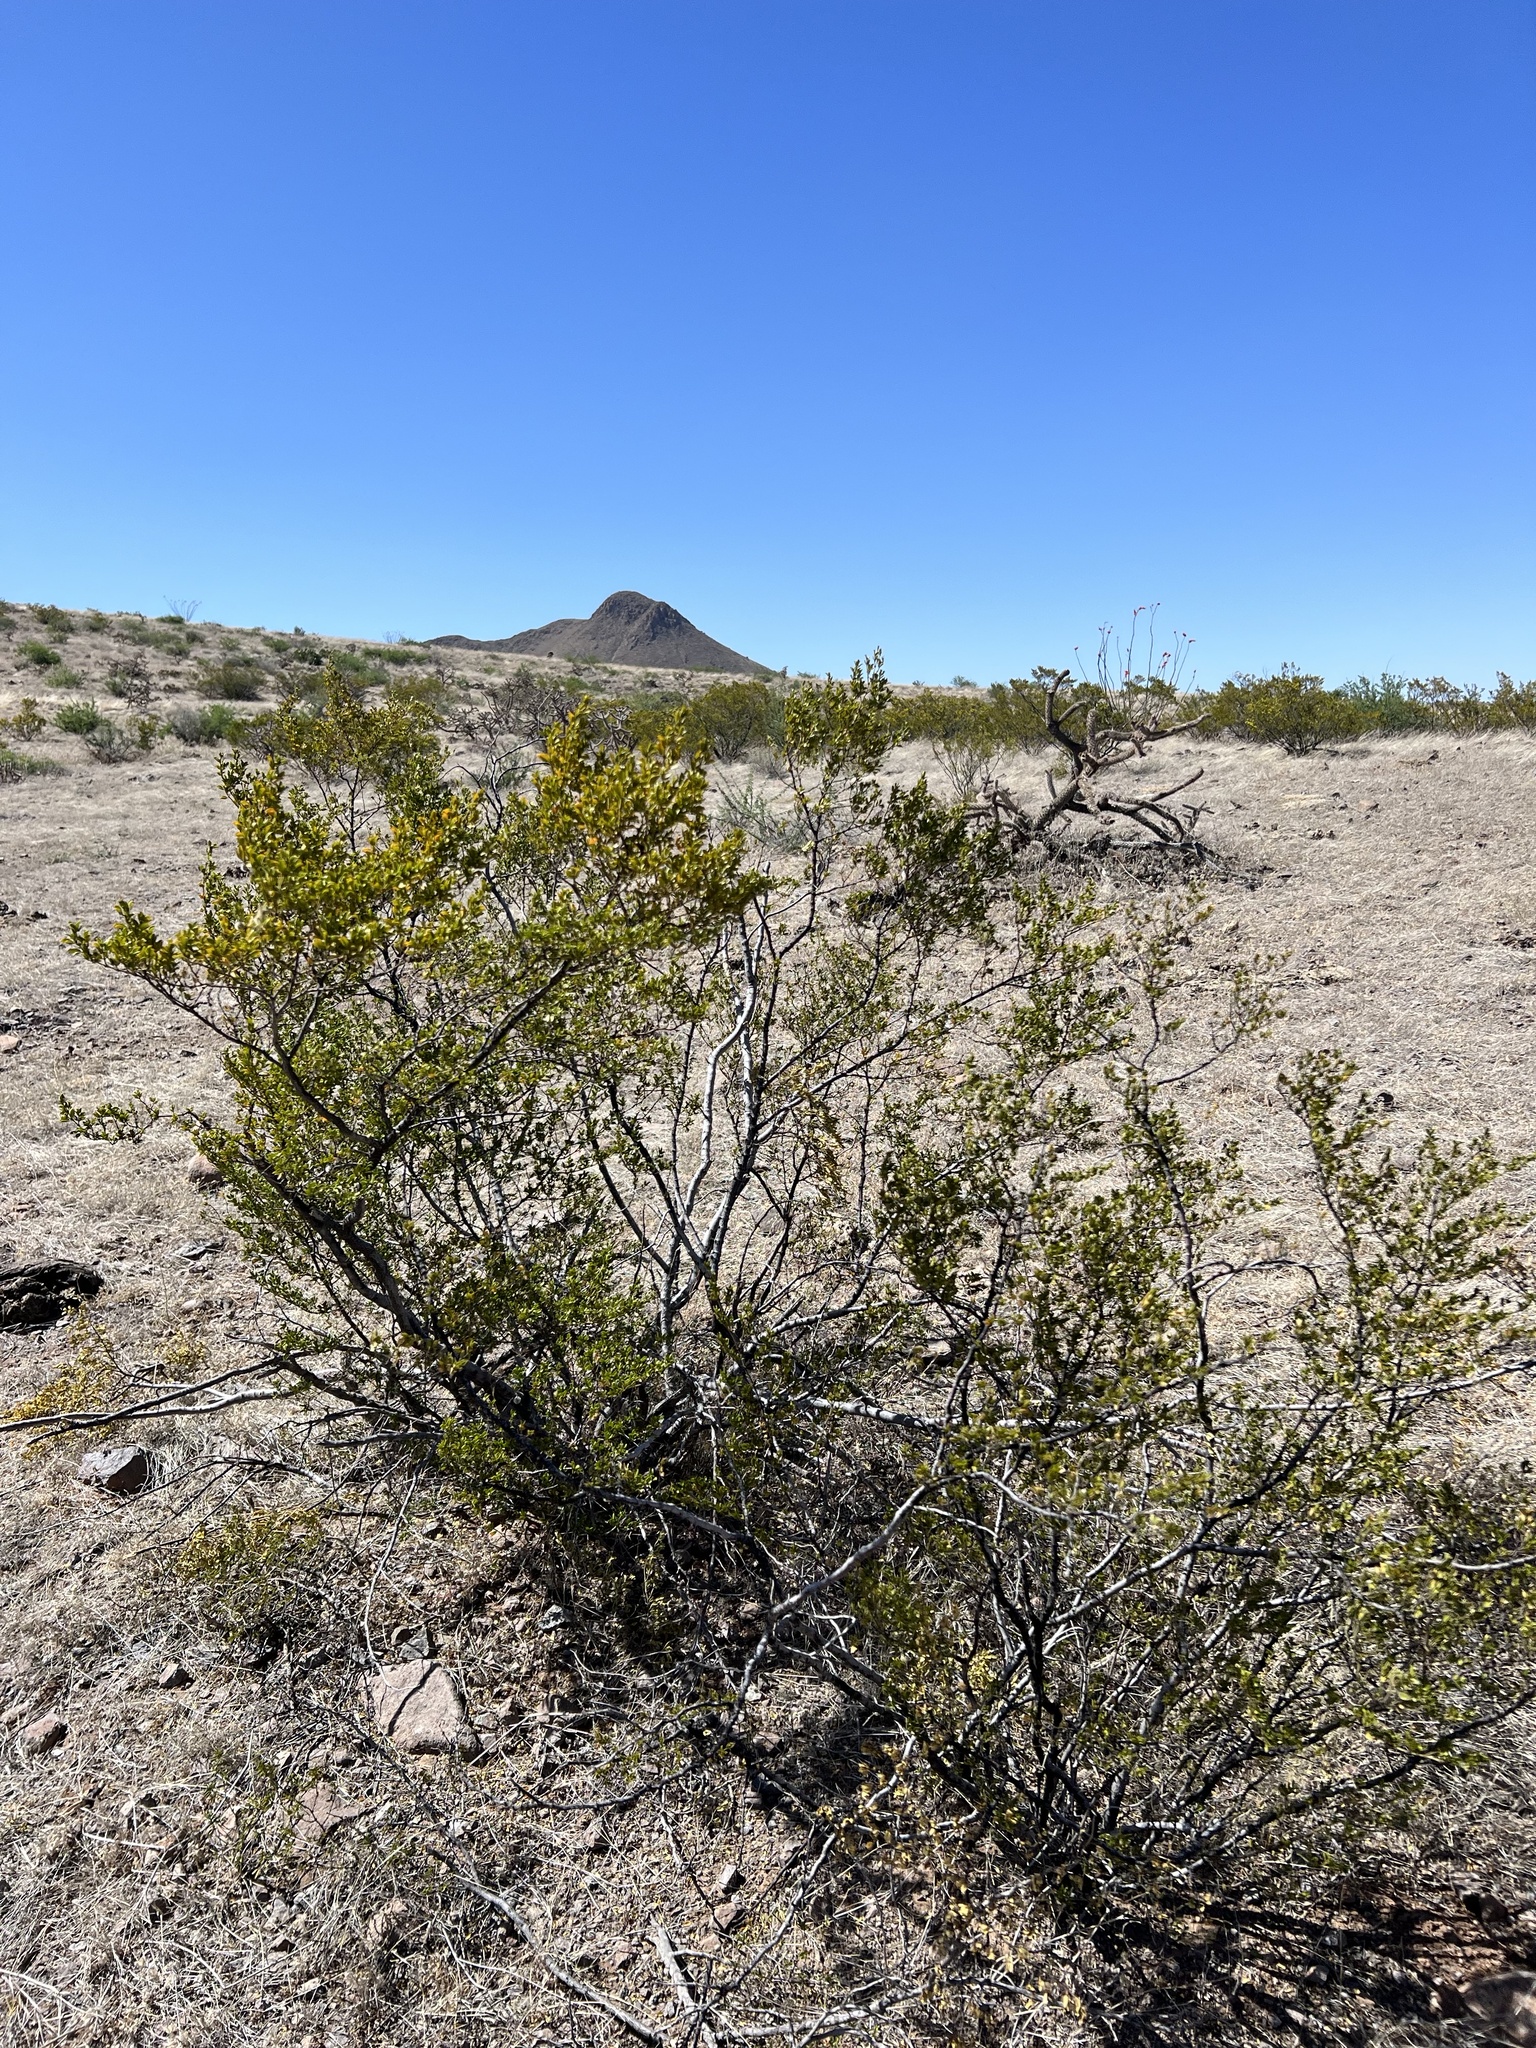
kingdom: Plantae
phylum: Tracheophyta
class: Magnoliopsida
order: Zygophyllales
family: Zygophyllaceae
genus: Larrea
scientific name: Larrea tridentata
